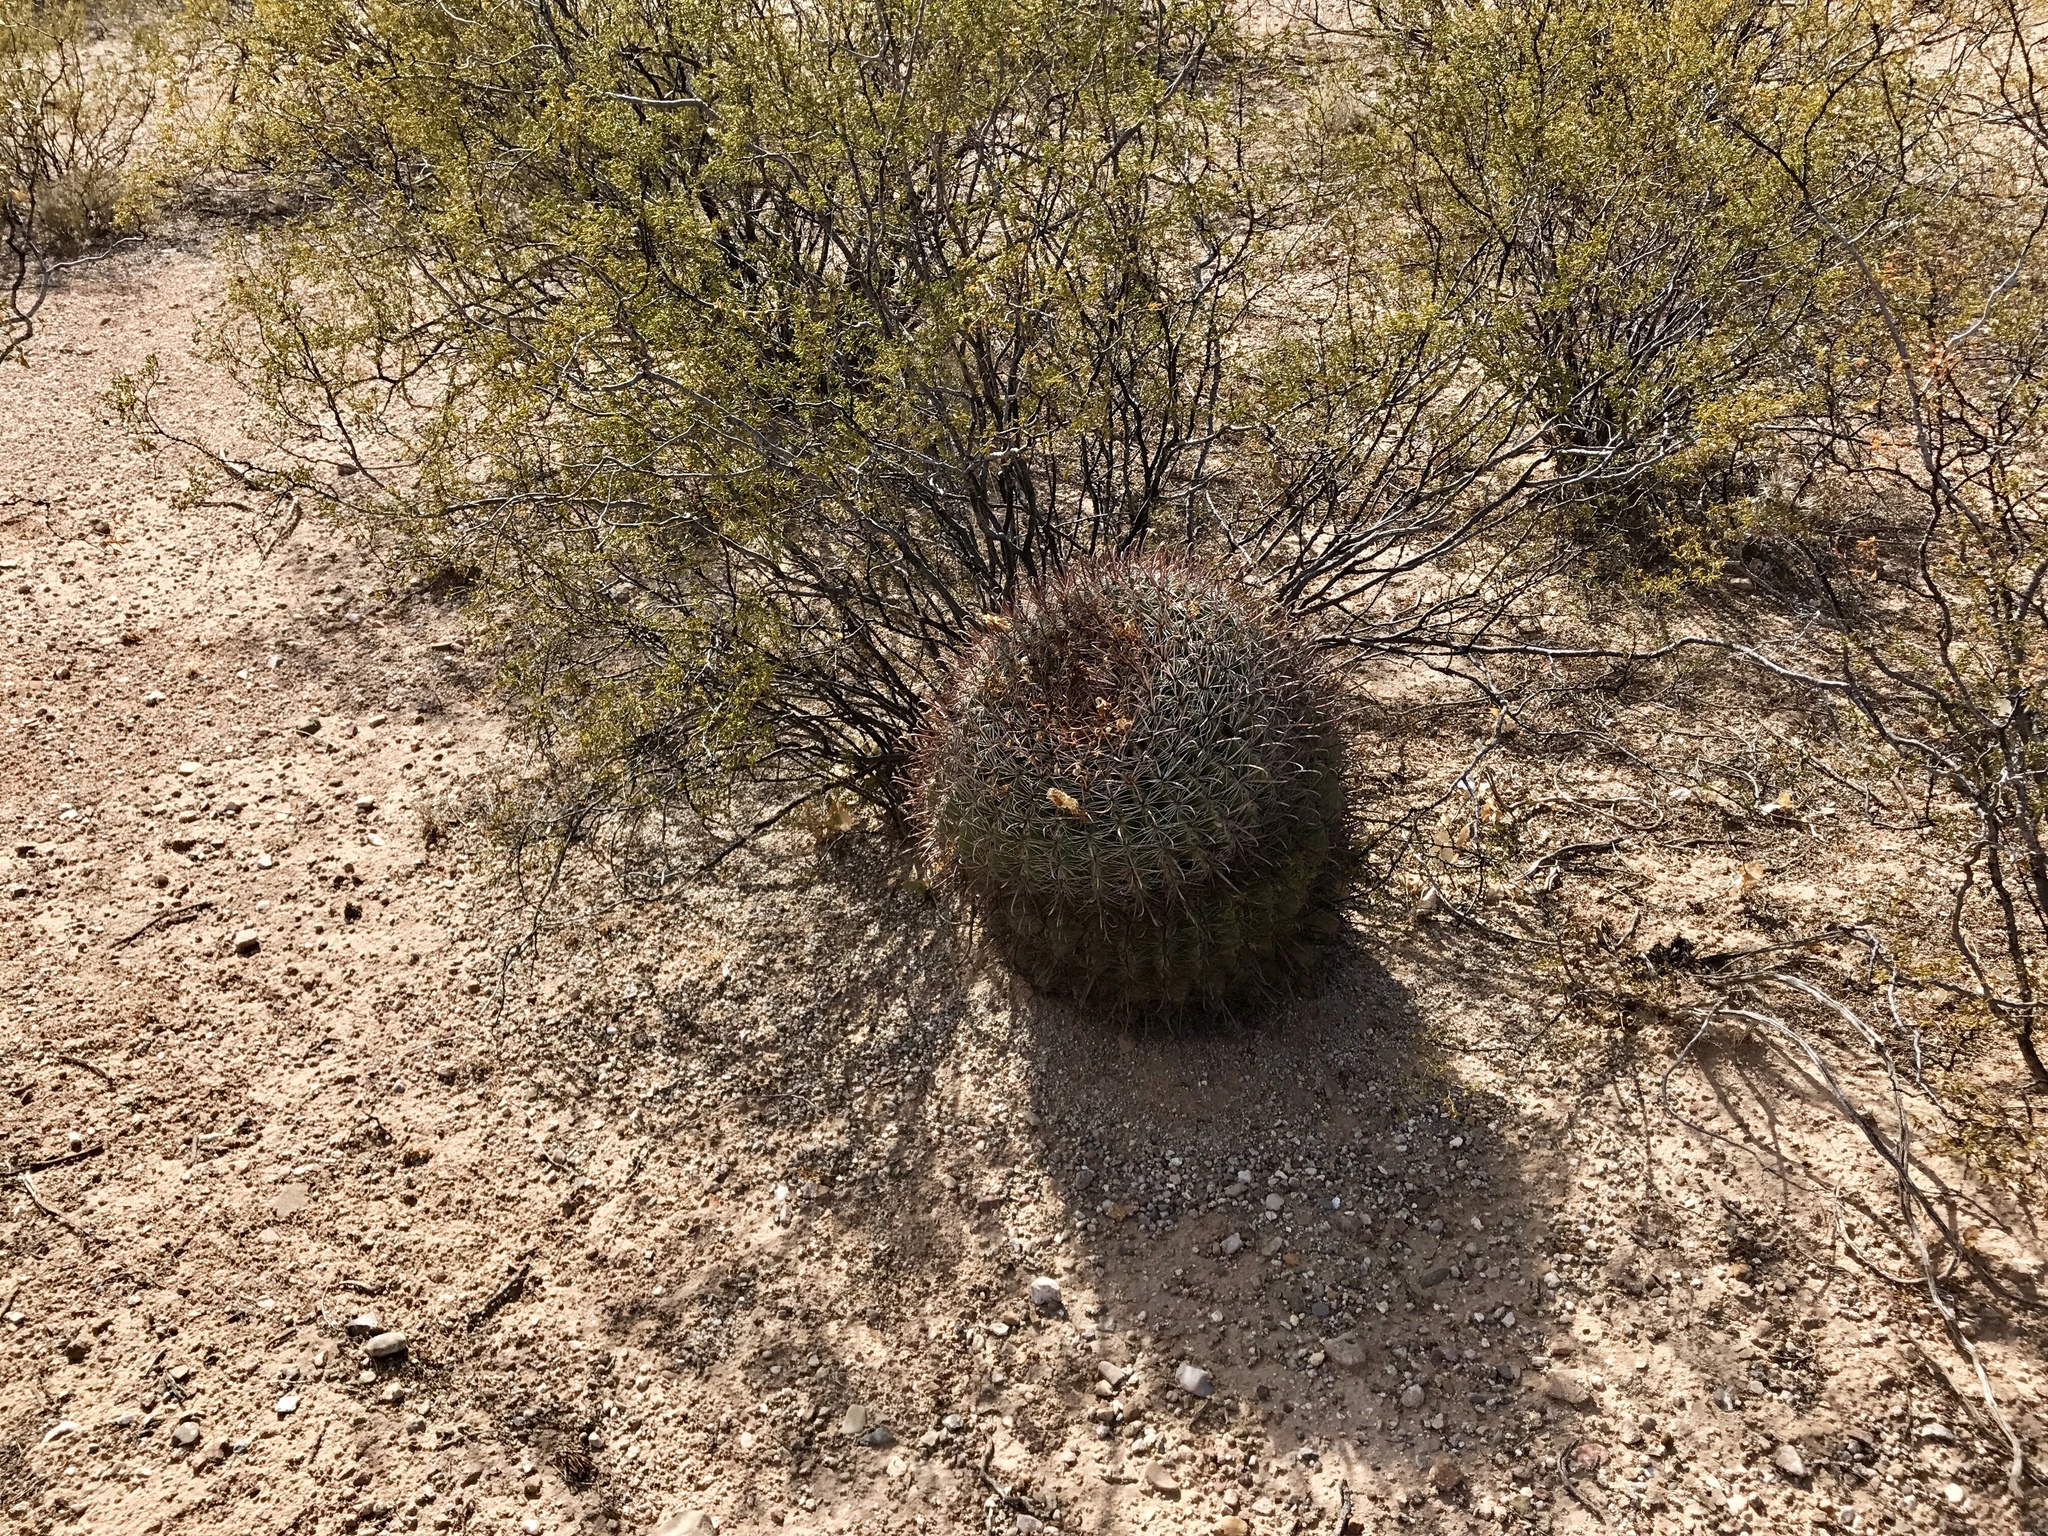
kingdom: Plantae
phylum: Tracheophyta
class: Magnoliopsida
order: Caryophyllales
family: Cactaceae
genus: Ferocactus
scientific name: Ferocactus wislizeni
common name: Candy barrel cactus
